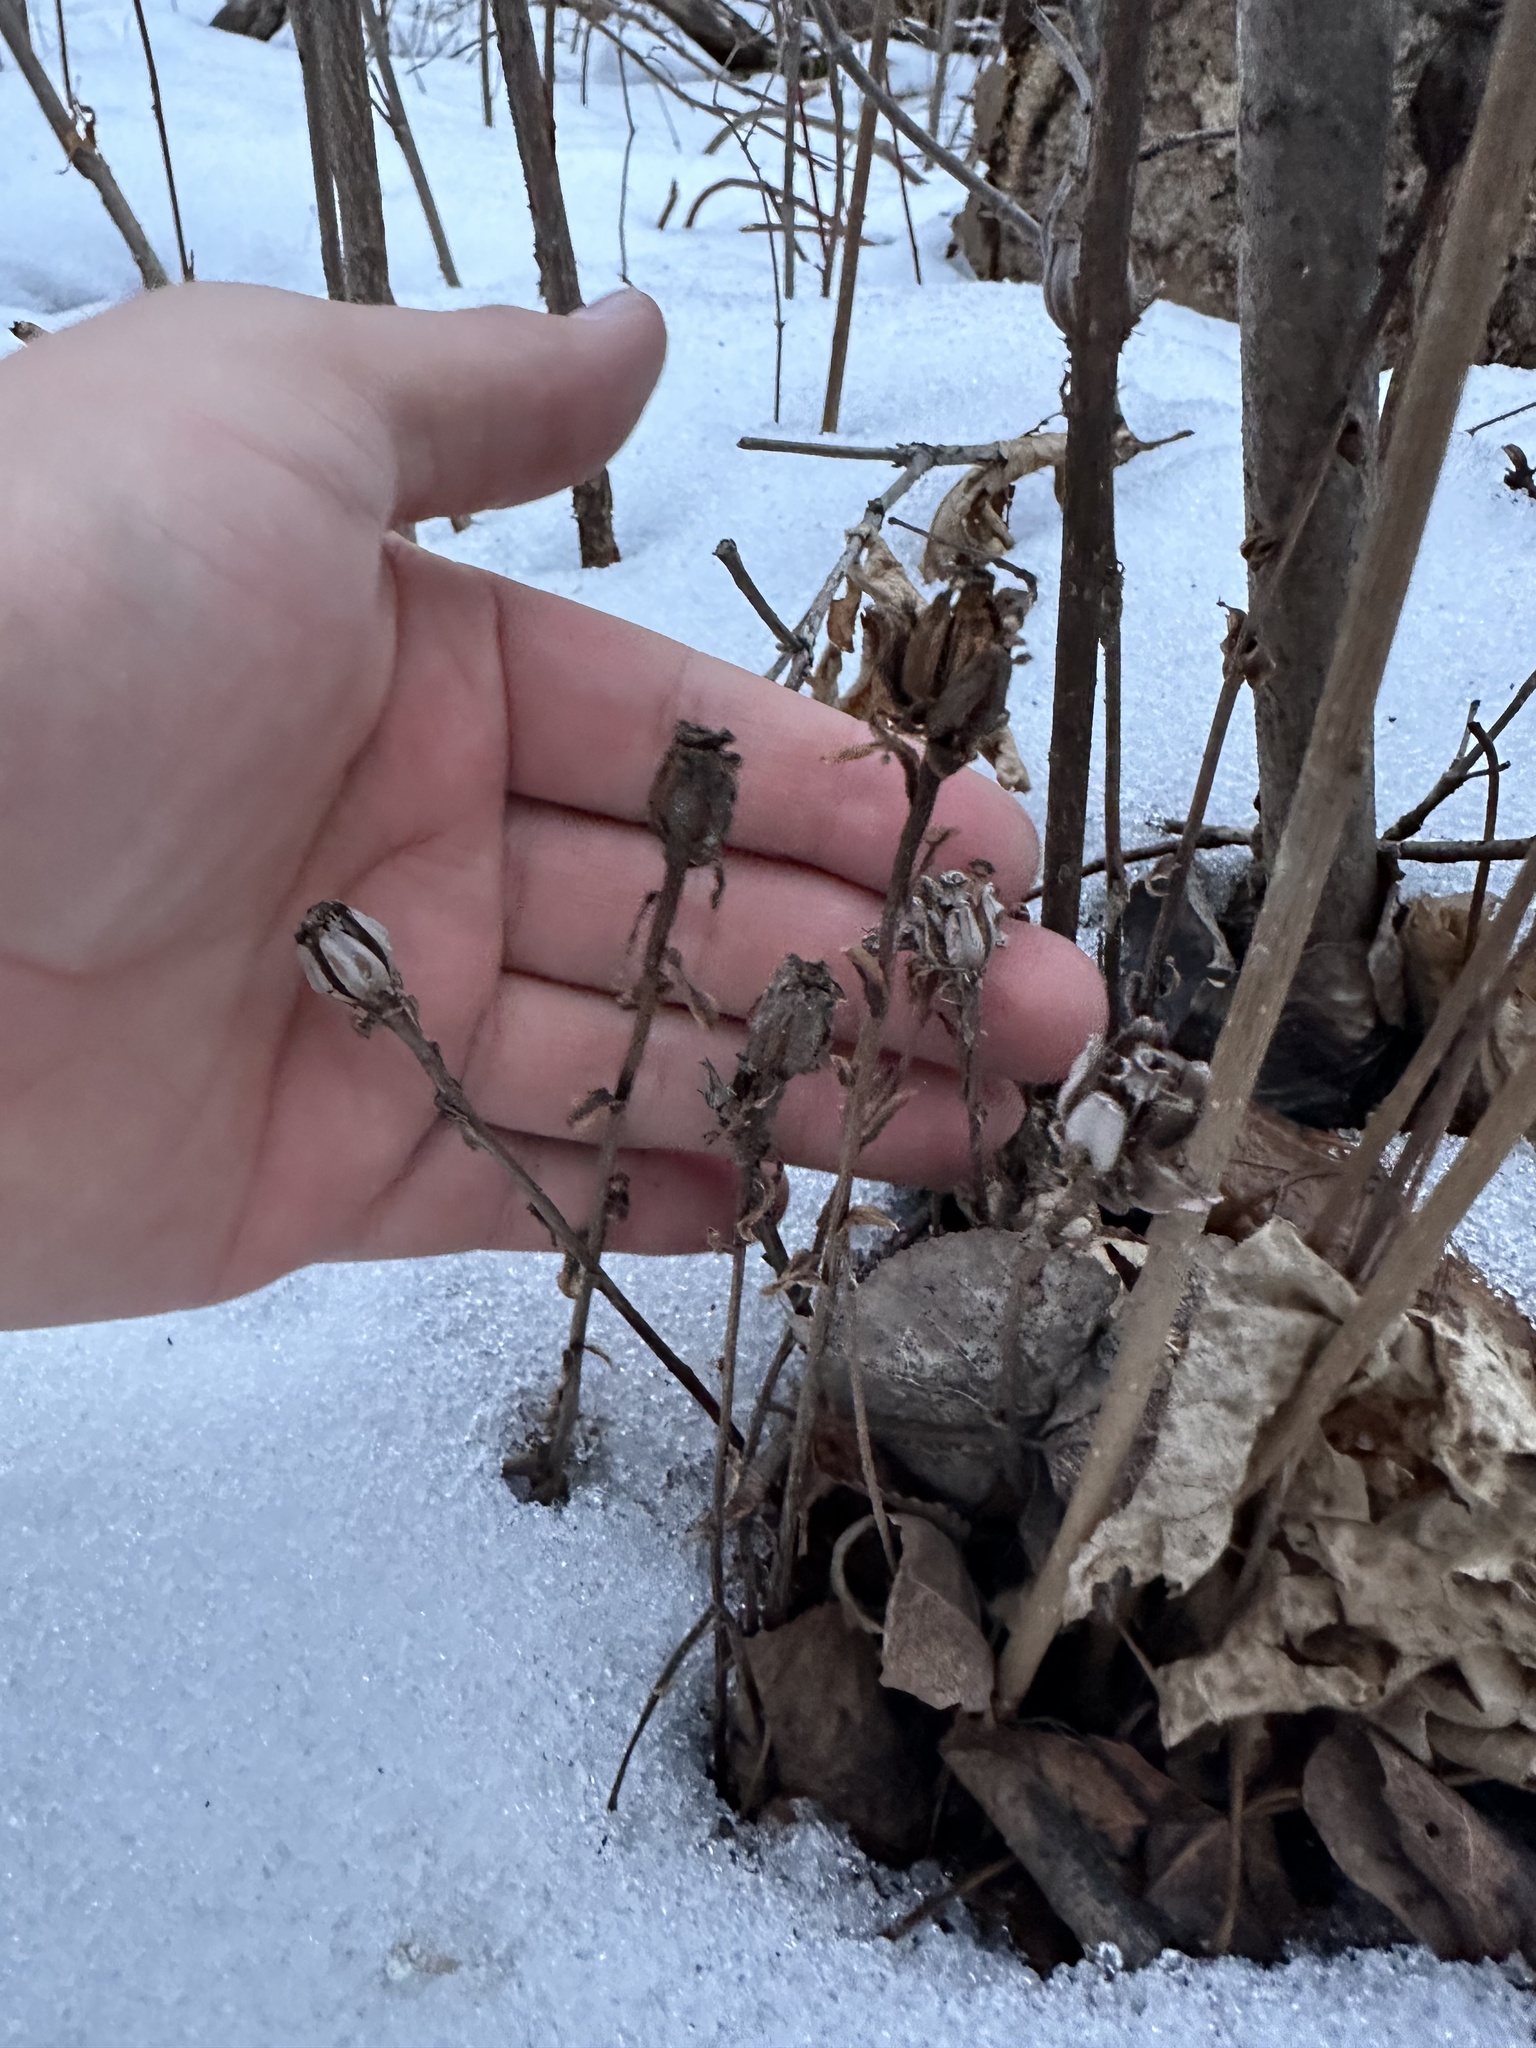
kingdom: Plantae
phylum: Tracheophyta
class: Magnoliopsida
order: Ericales
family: Ericaceae
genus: Monotropa
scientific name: Monotropa uniflora
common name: Convulsion root
